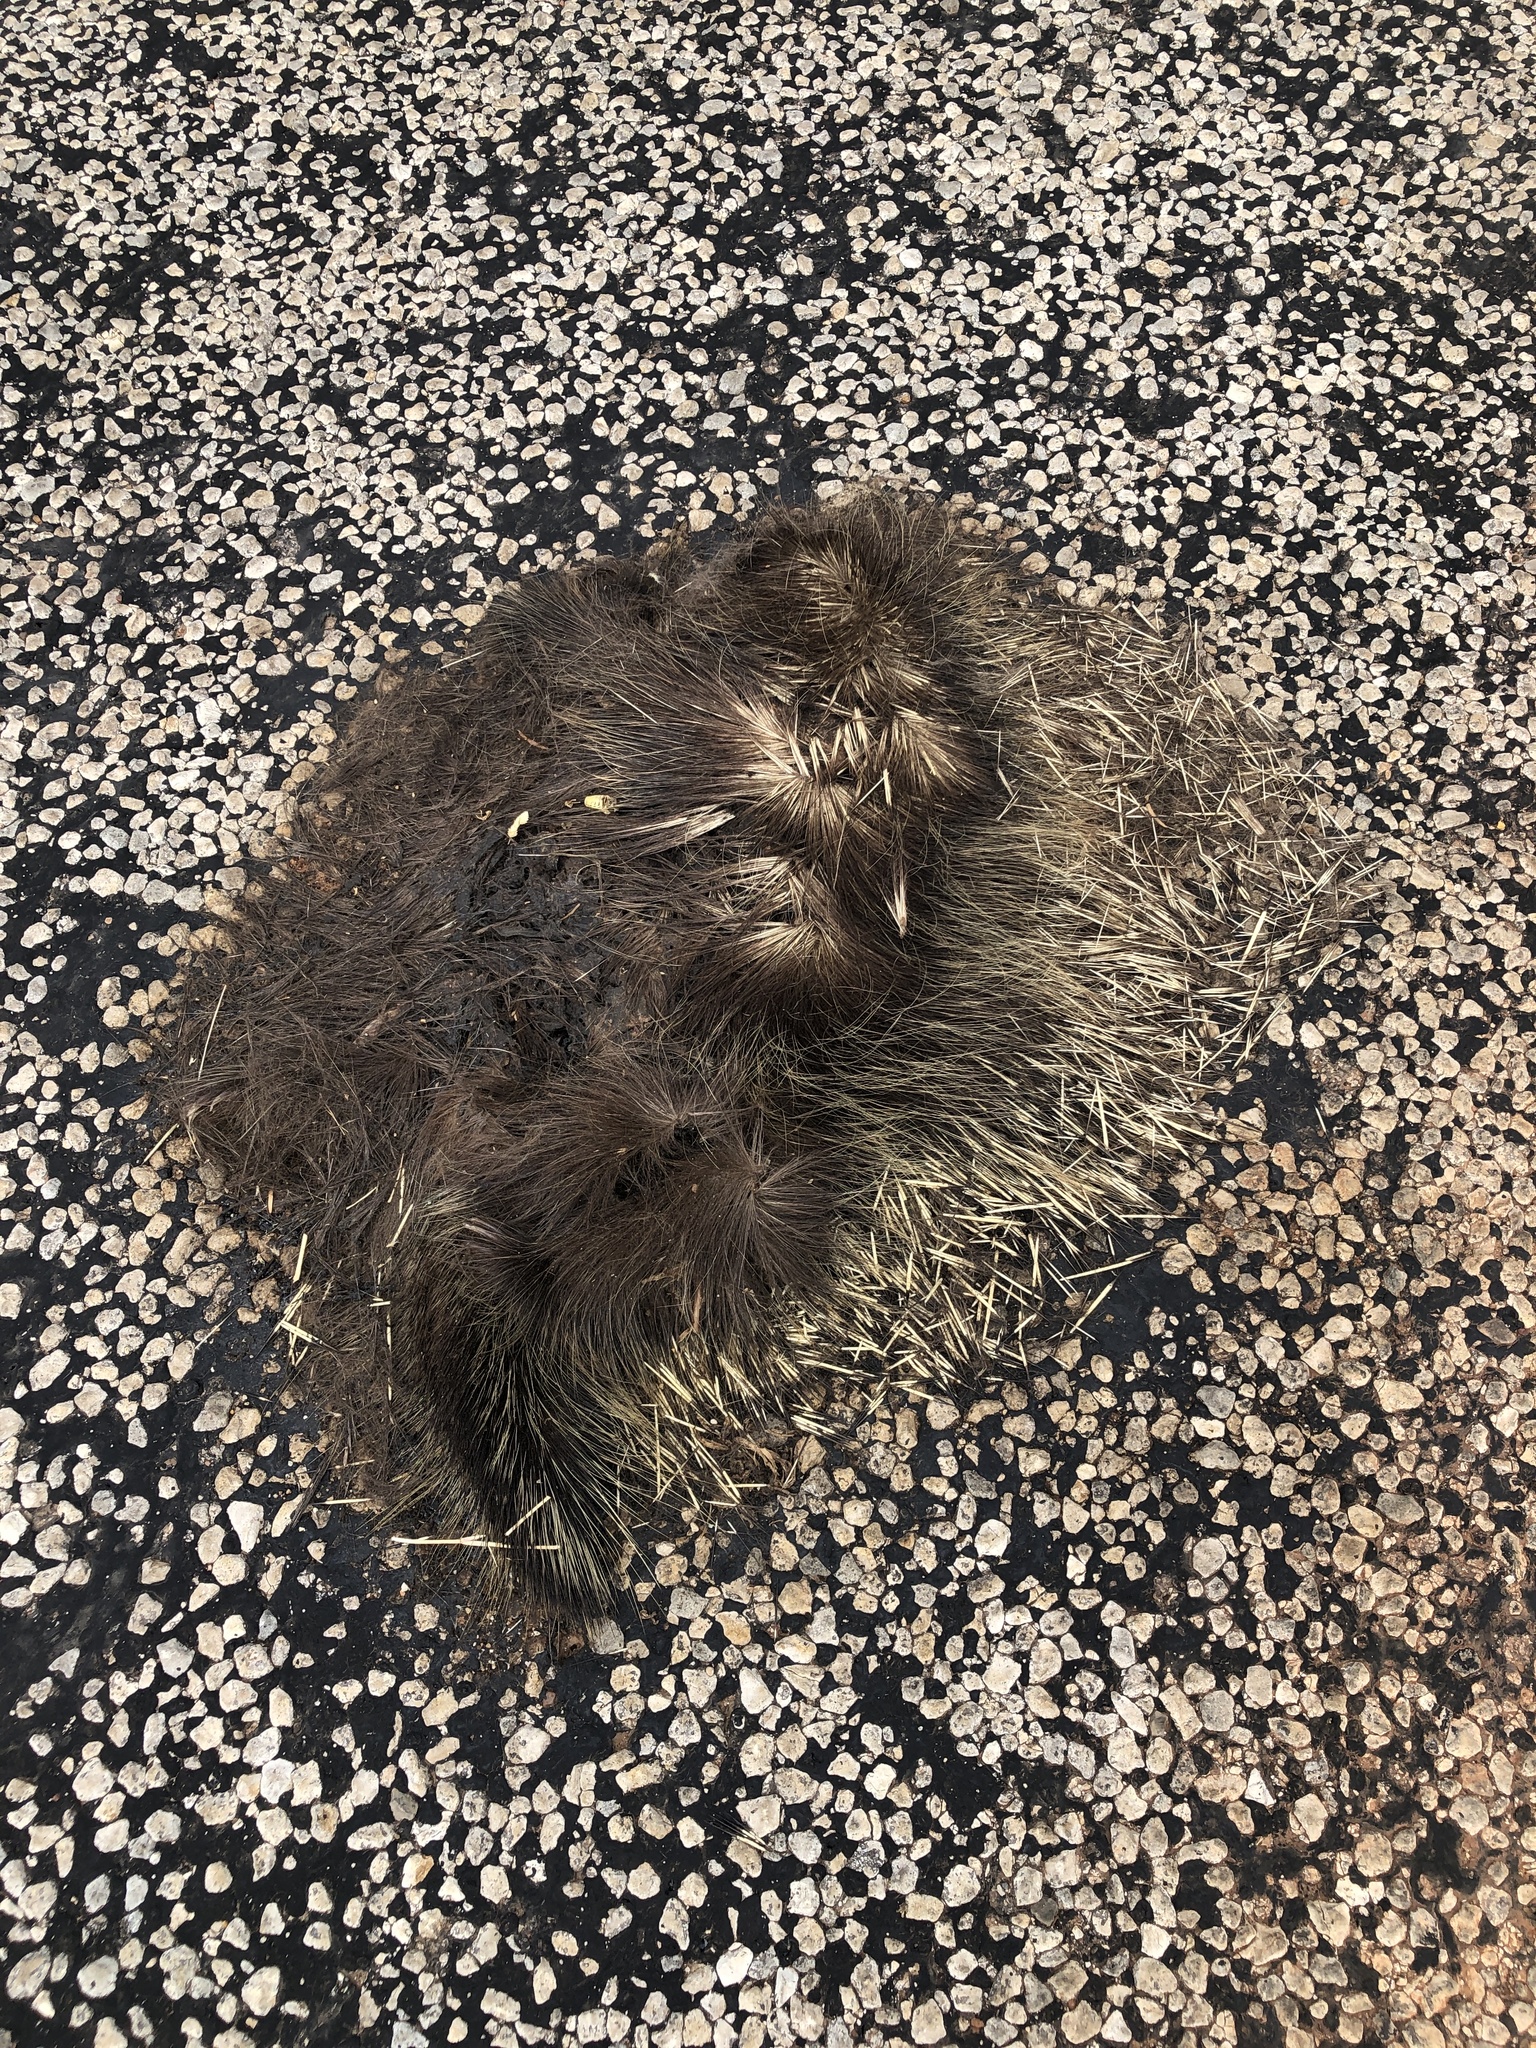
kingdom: Animalia
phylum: Chordata
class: Mammalia
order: Rodentia
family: Erethizontidae
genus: Erethizon
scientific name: Erethizon dorsatus
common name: North american porcupine
